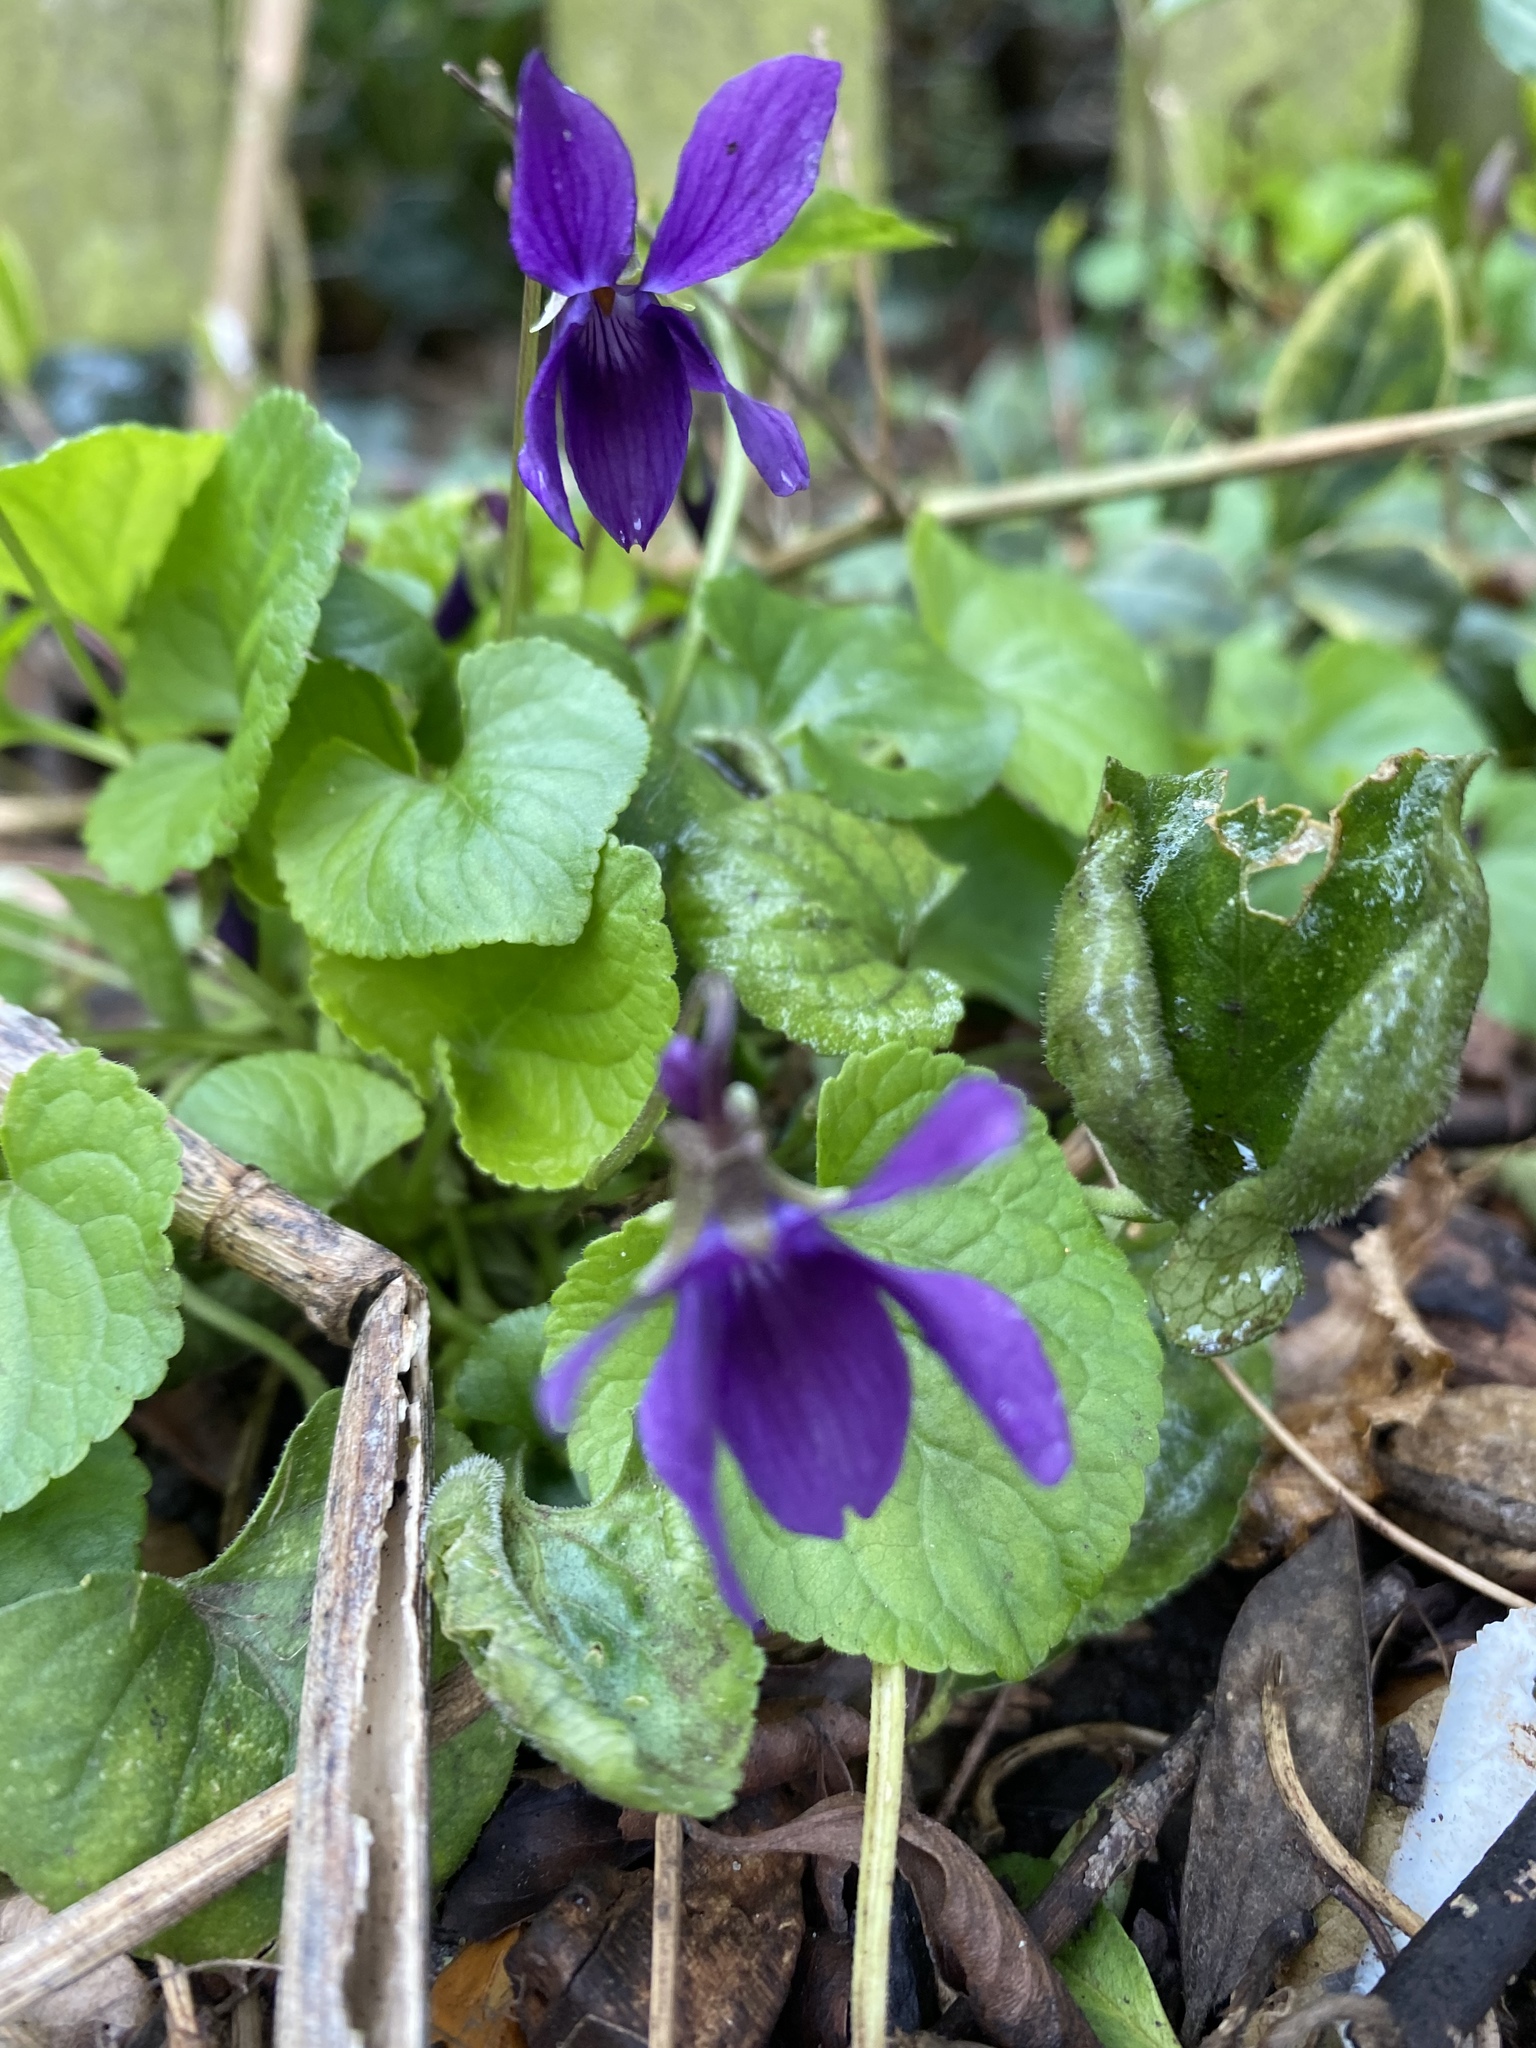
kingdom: Plantae
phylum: Tracheophyta
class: Magnoliopsida
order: Malpighiales
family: Violaceae
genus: Viola
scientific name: Viola odorata
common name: Sweet violet
